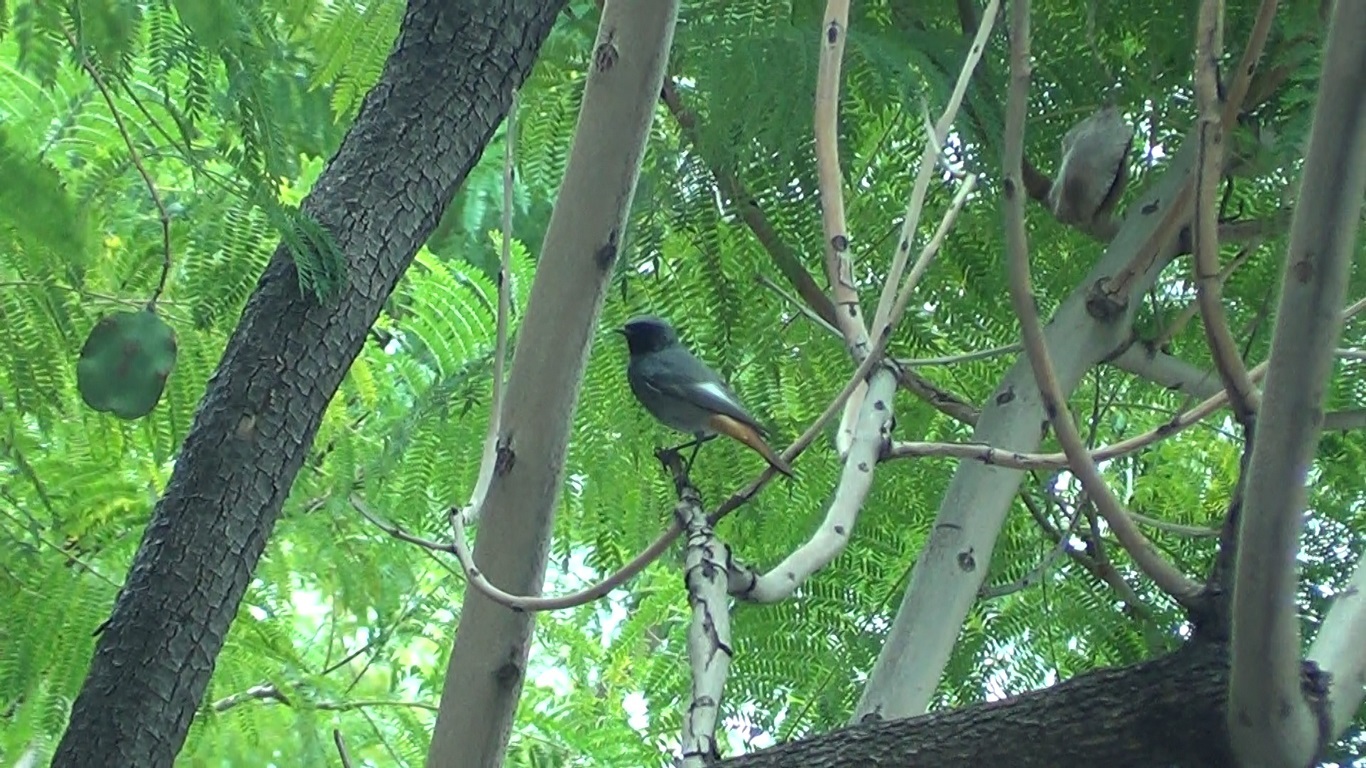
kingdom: Animalia
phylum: Chordata
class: Aves
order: Passeriformes
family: Muscicapidae
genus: Phoenicurus
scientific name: Phoenicurus ochruros
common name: Black redstart
